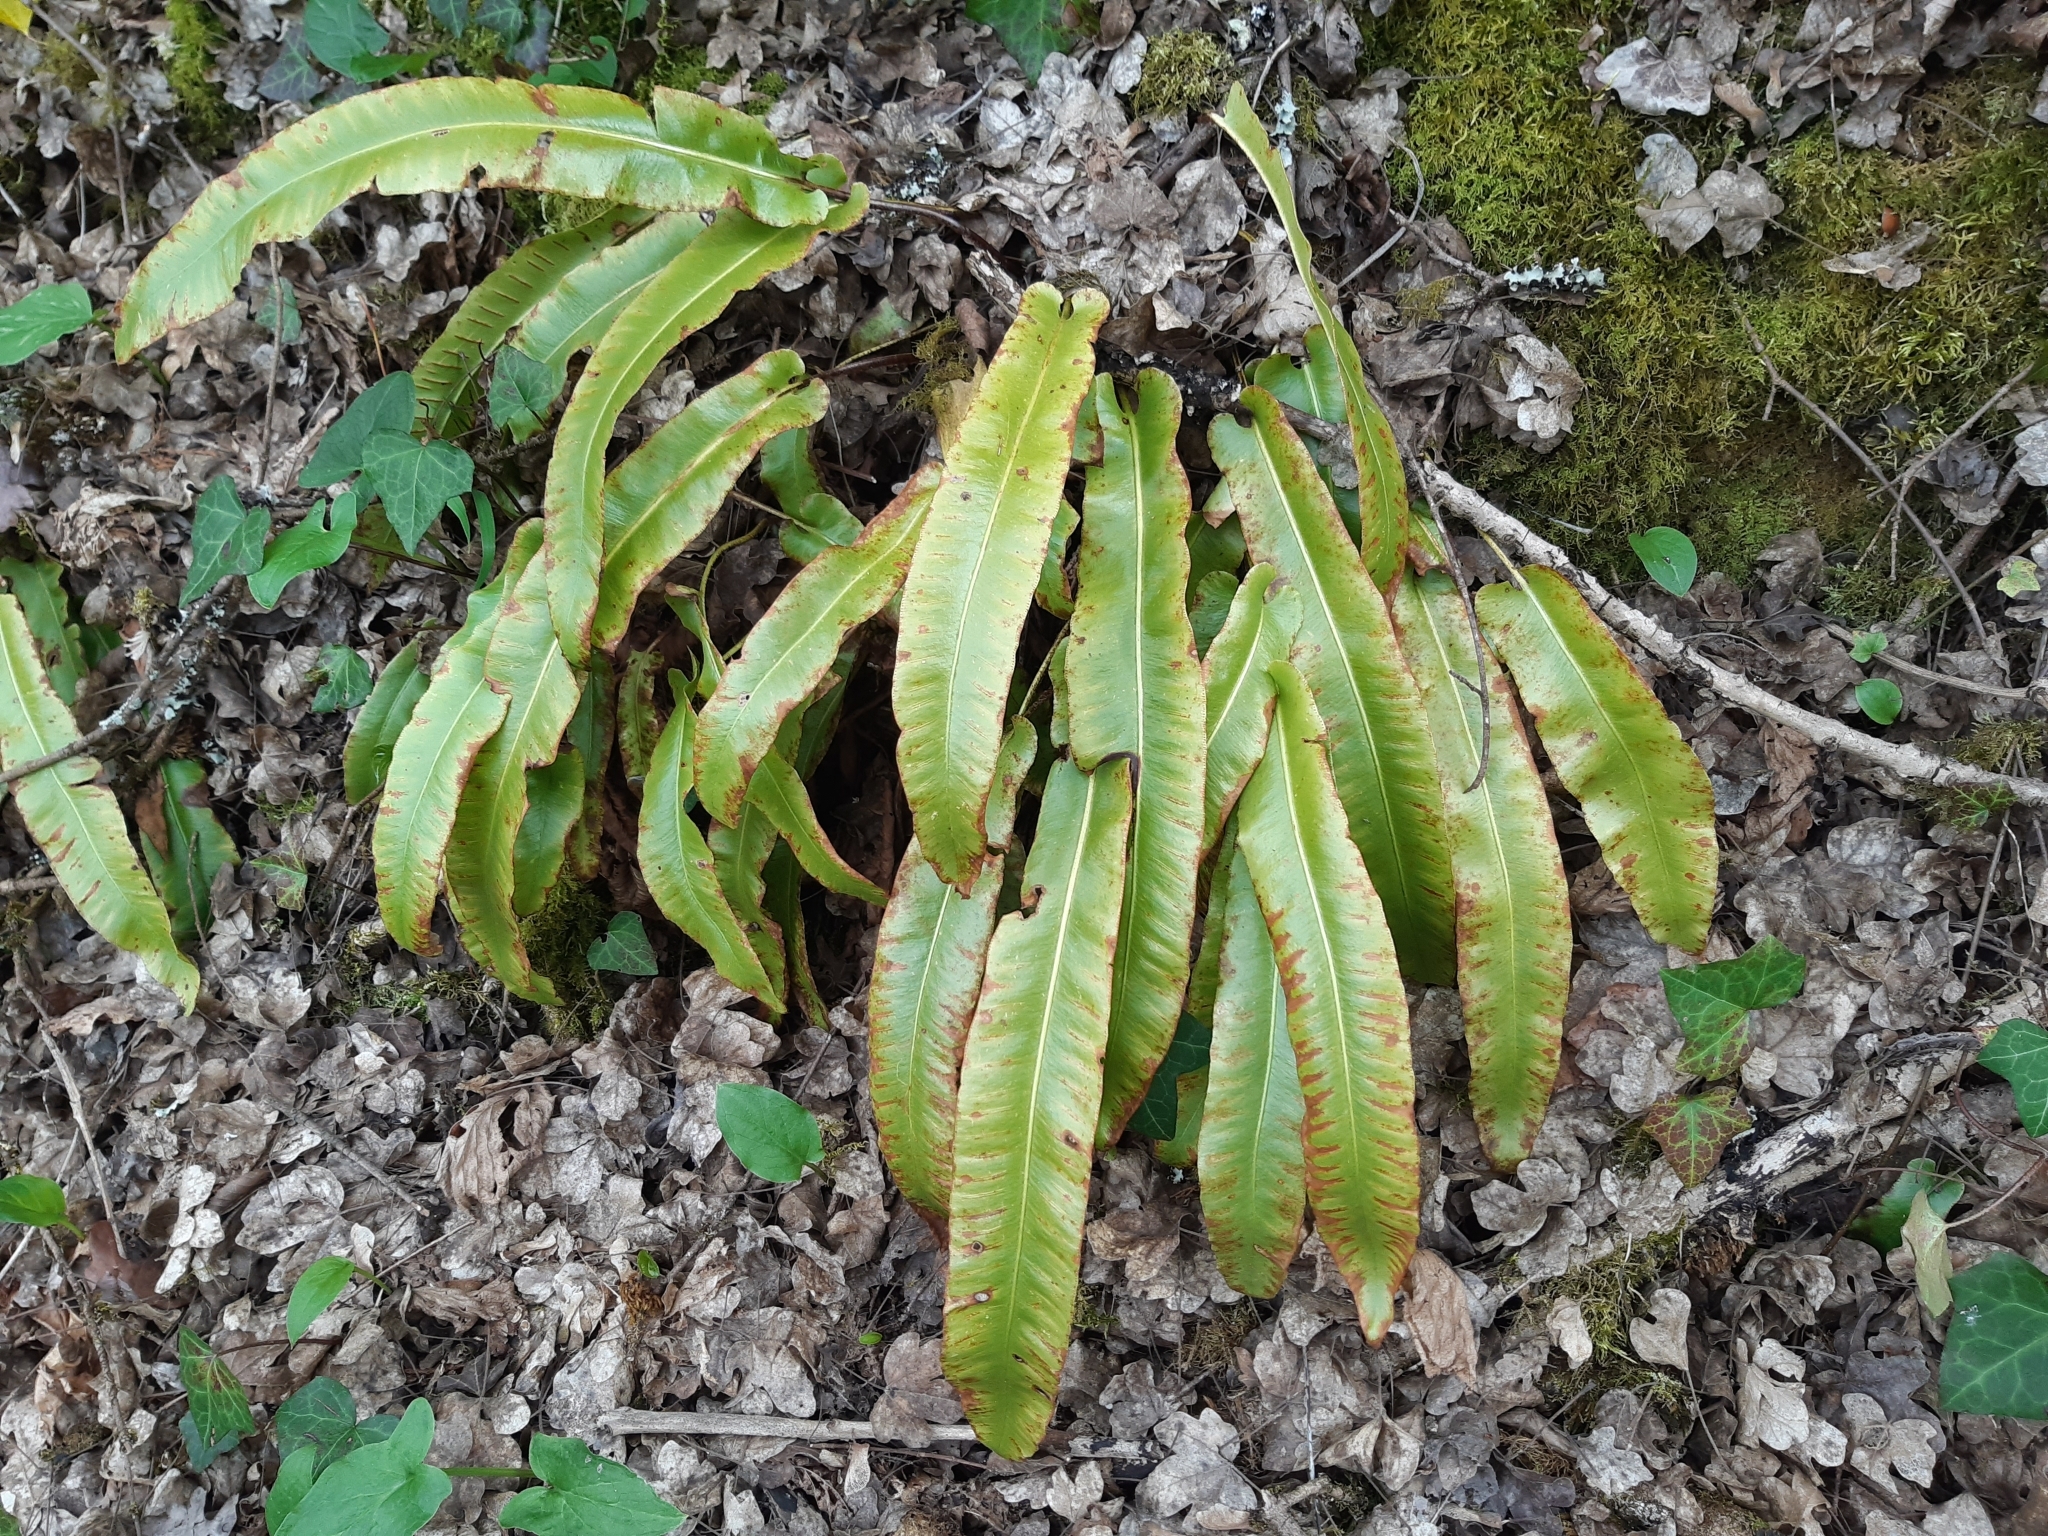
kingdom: Plantae
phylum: Tracheophyta
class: Polypodiopsida
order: Polypodiales
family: Aspleniaceae
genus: Asplenium
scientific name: Asplenium scolopendrium
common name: Hart's-tongue fern
